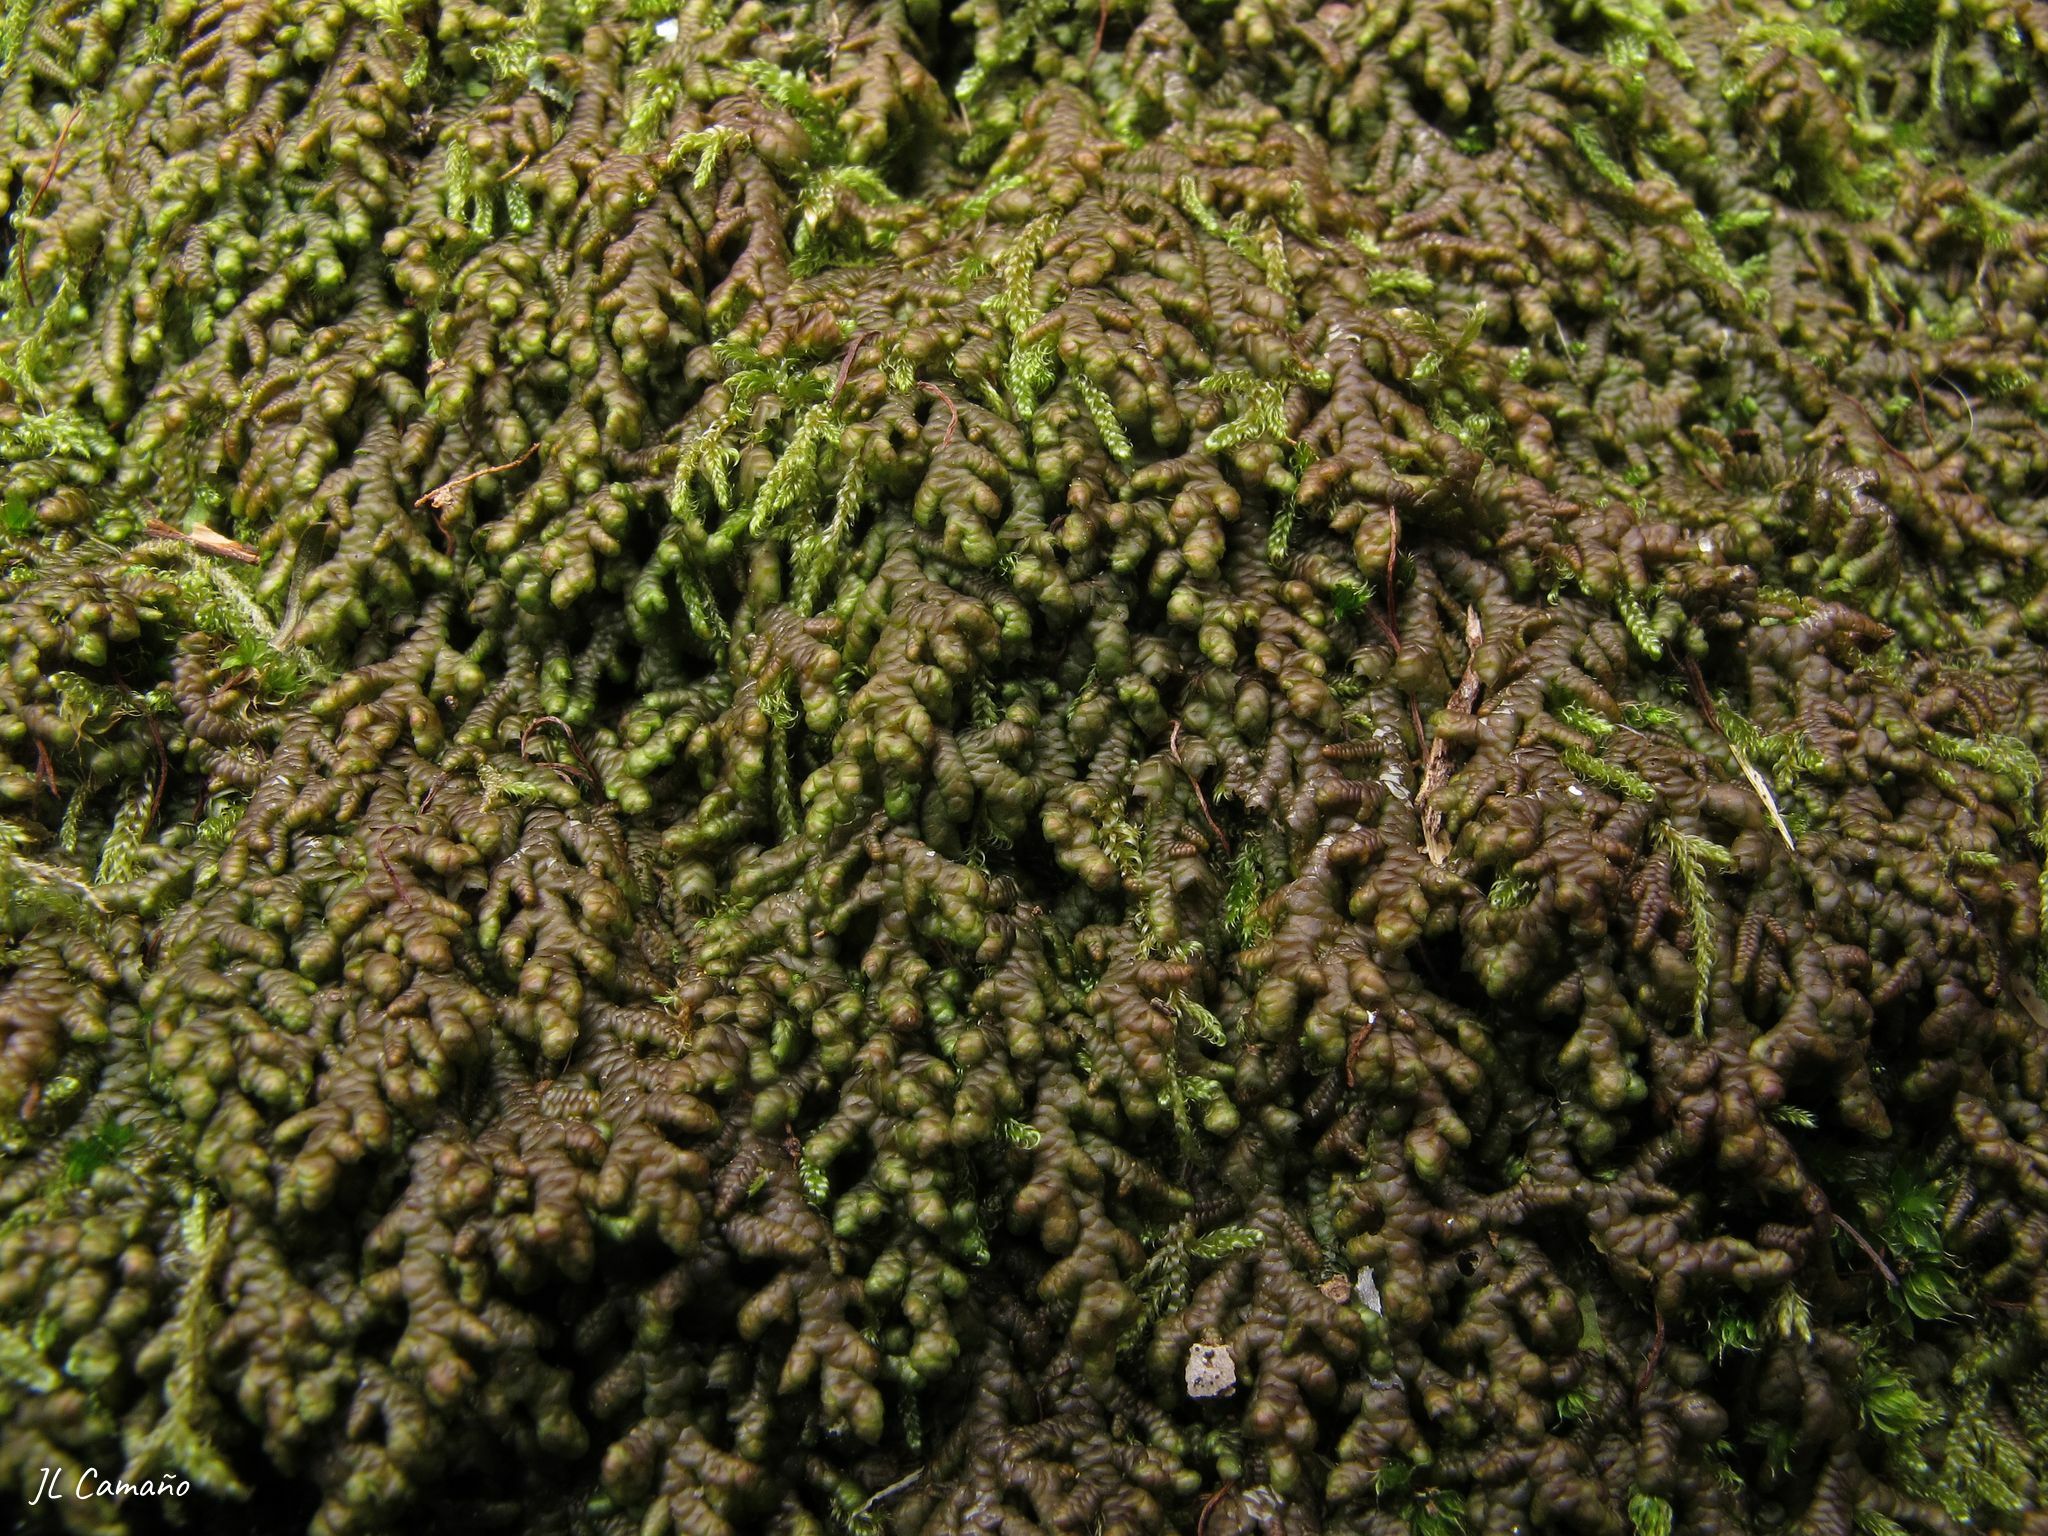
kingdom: Plantae
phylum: Marchantiophyta
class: Jungermanniopsida
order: Porellales
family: Frullaniaceae
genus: Frullania
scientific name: Frullania tamarisci
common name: Tamarisk scalewort
